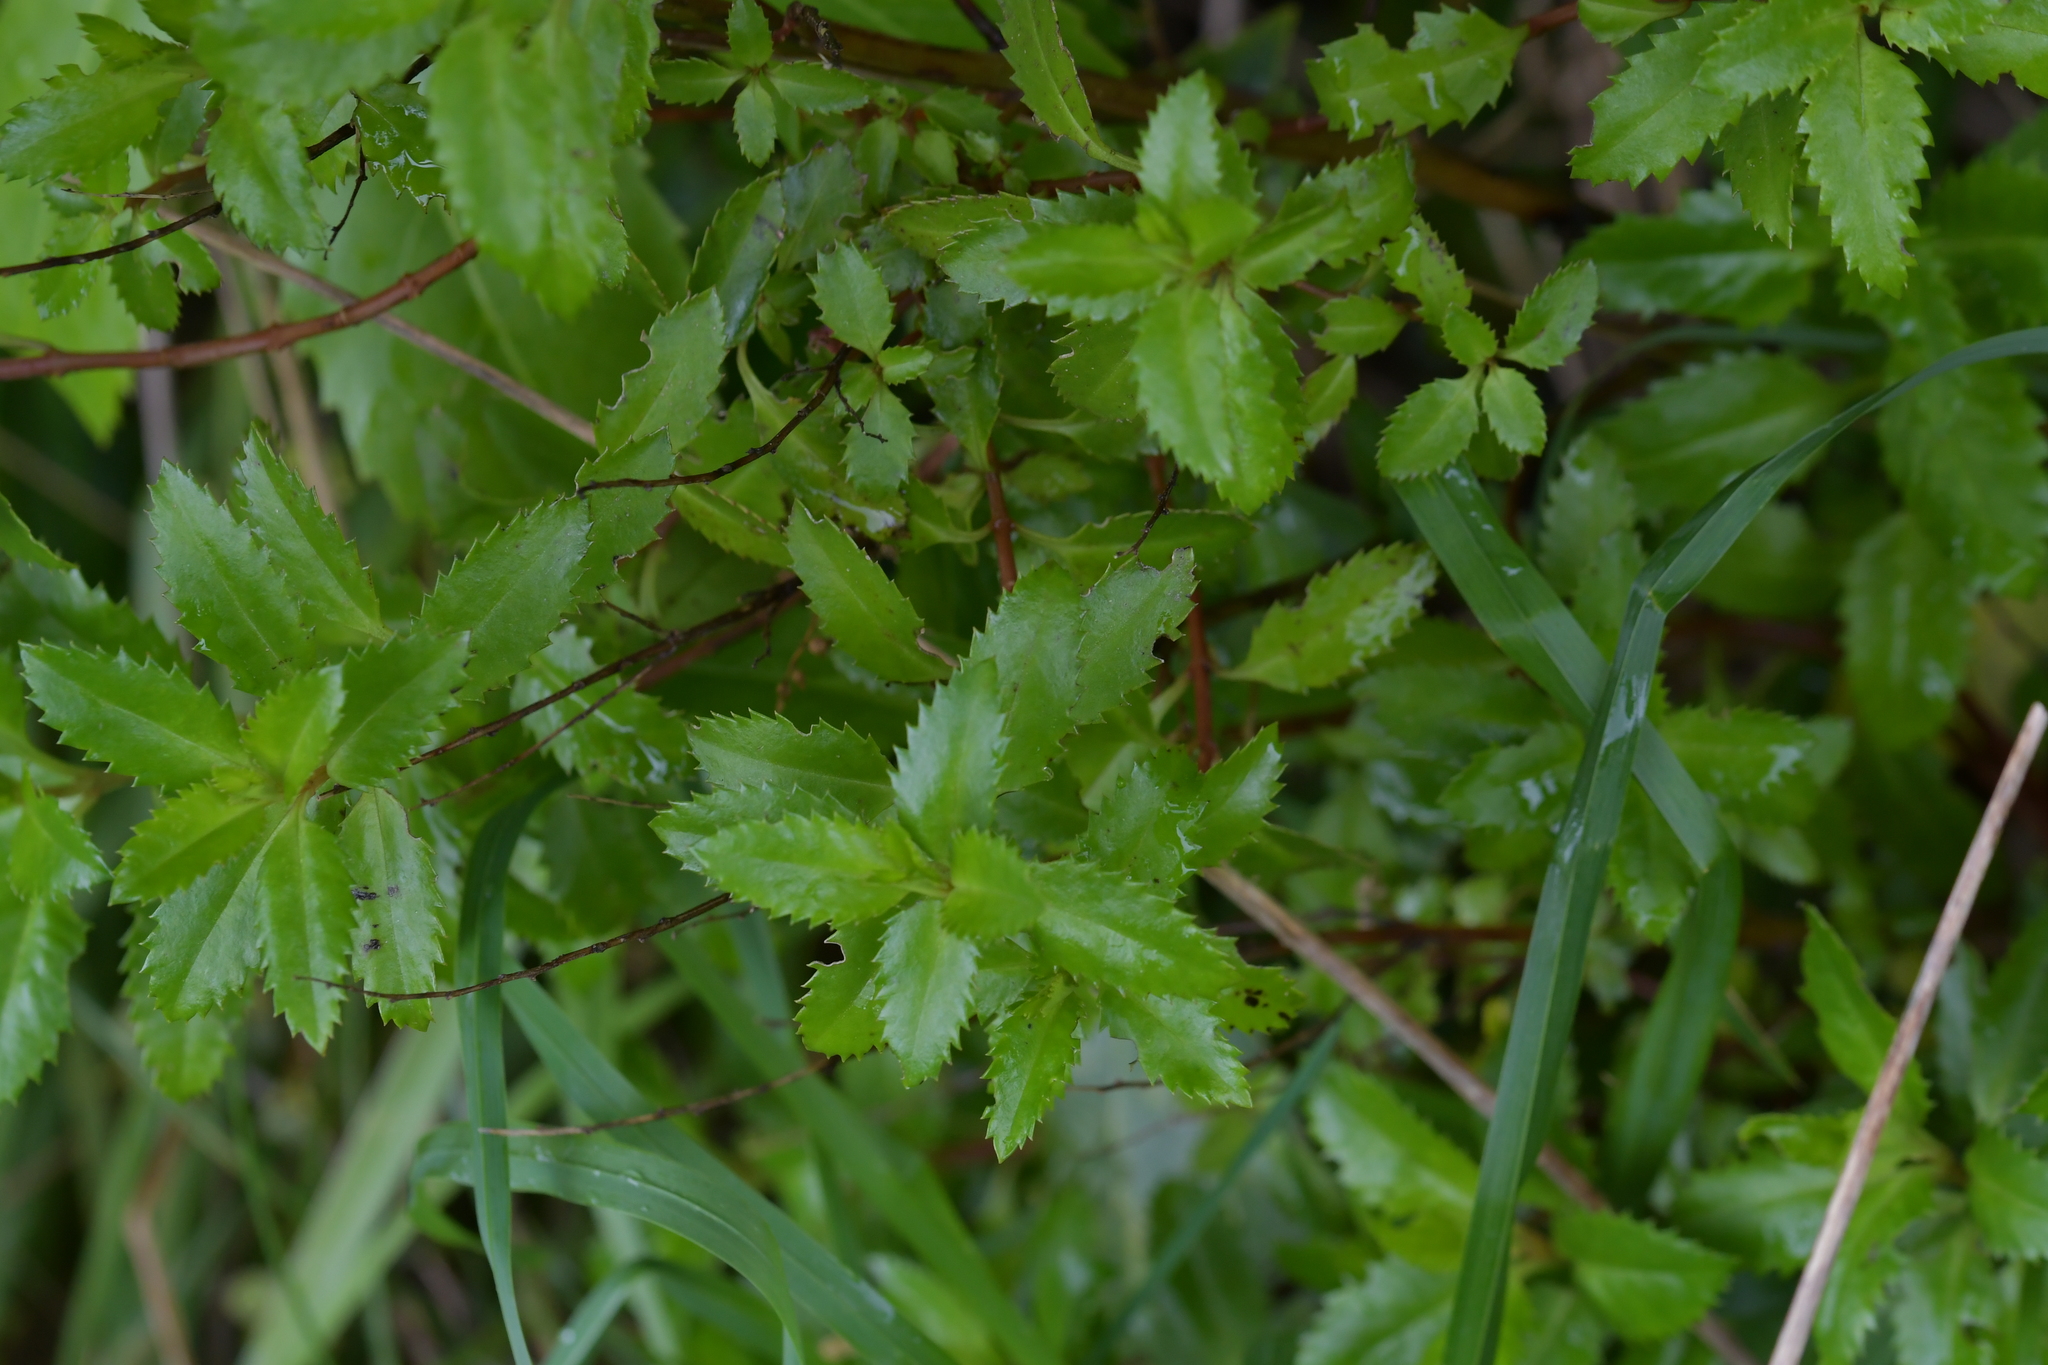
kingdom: Plantae
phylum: Tracheophyta
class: Magnoliopsida
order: Saxifragales
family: Haloragaceae
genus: Haloragis
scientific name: Haloragis erecta
